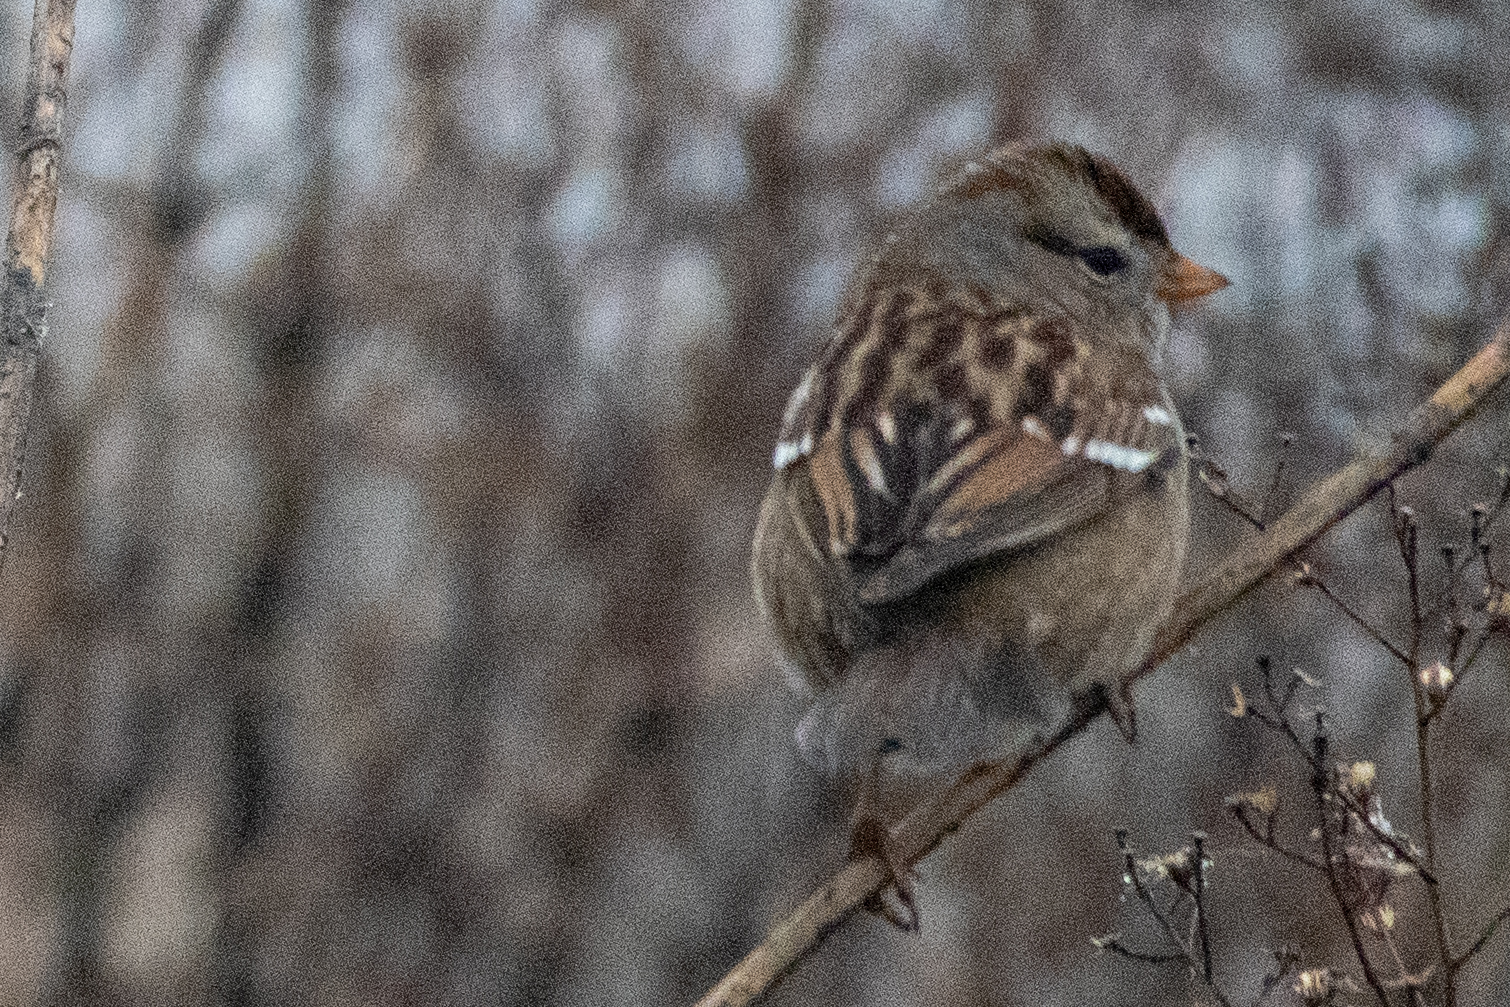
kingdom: Animalia
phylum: Chordata
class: Aves
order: Passeriformes
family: Passerellidae
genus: Zonotrichia
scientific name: Zonotrichia leucophrys
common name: White-crowned sparrow
